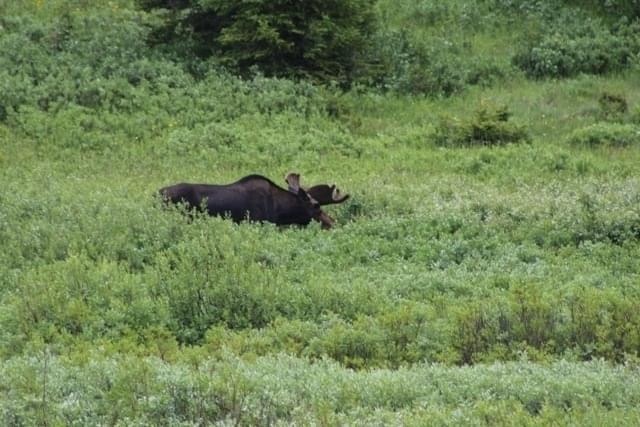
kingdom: Animalia
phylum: Chordata
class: Mammalia
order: Artiodactyla
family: Cervidae
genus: Alces
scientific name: Alces alces
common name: Moose
